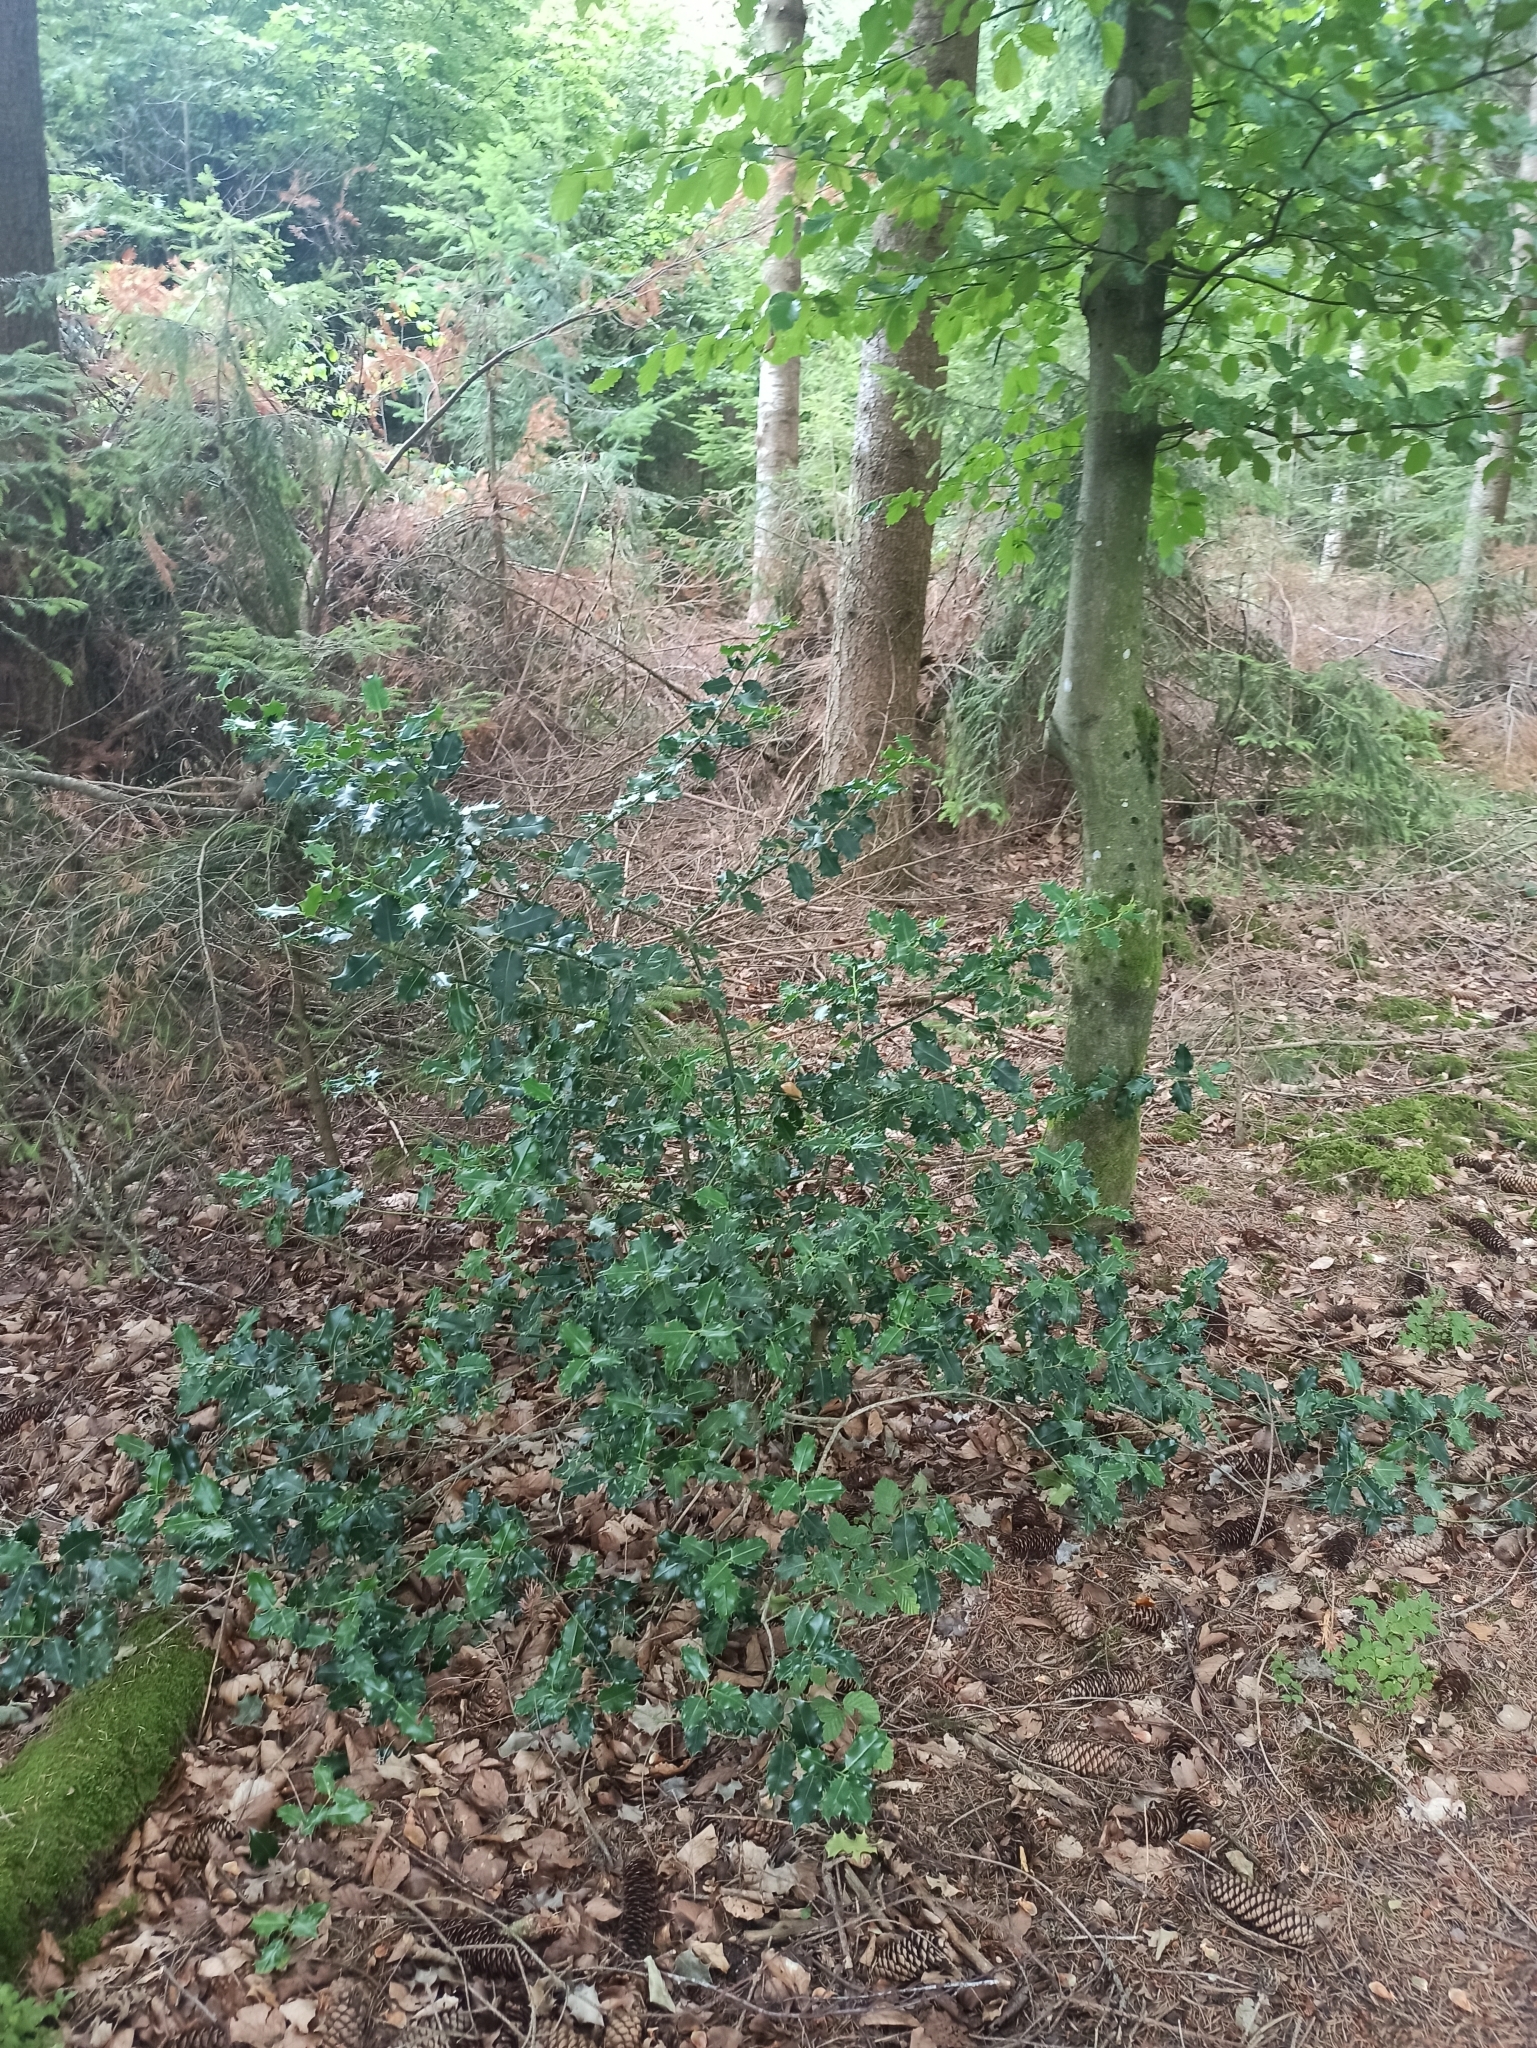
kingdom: Plantae
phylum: Tracheophyta
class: Magnoliopsida
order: Aquifoliales
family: Aquifoliaceae
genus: Ilex
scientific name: Ilex aquifolium
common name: English holly
